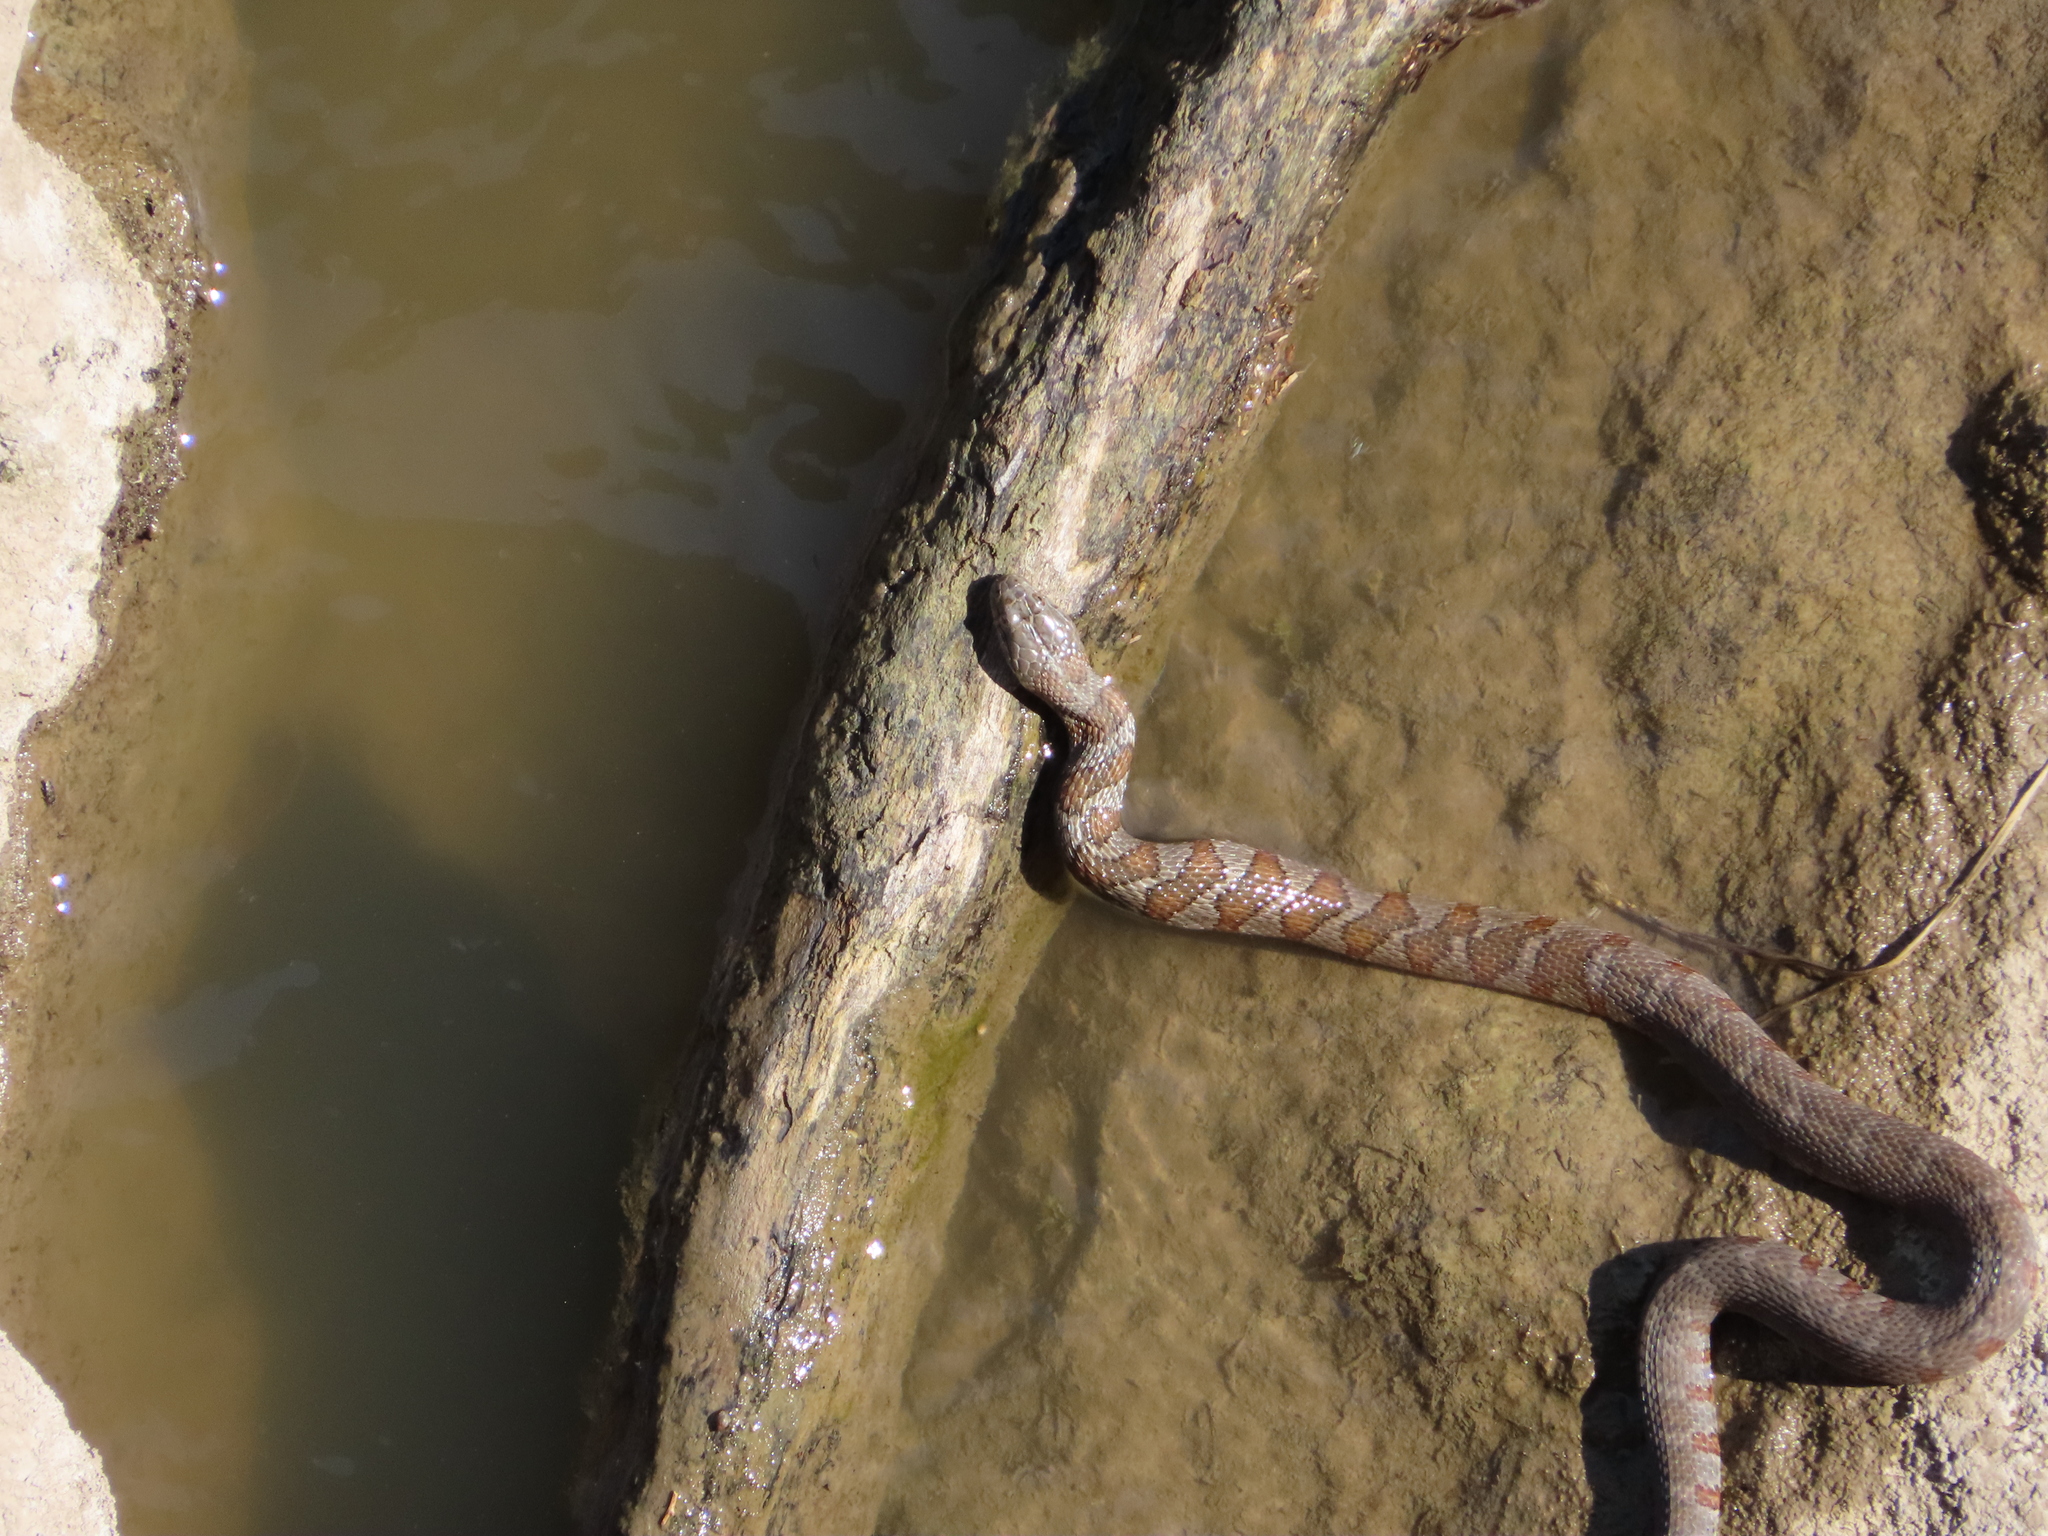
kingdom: Animalia
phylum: Chordata
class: Squamata
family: Colubridae
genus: Nerodia
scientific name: Nerodia sipedon
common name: Northern water snake
